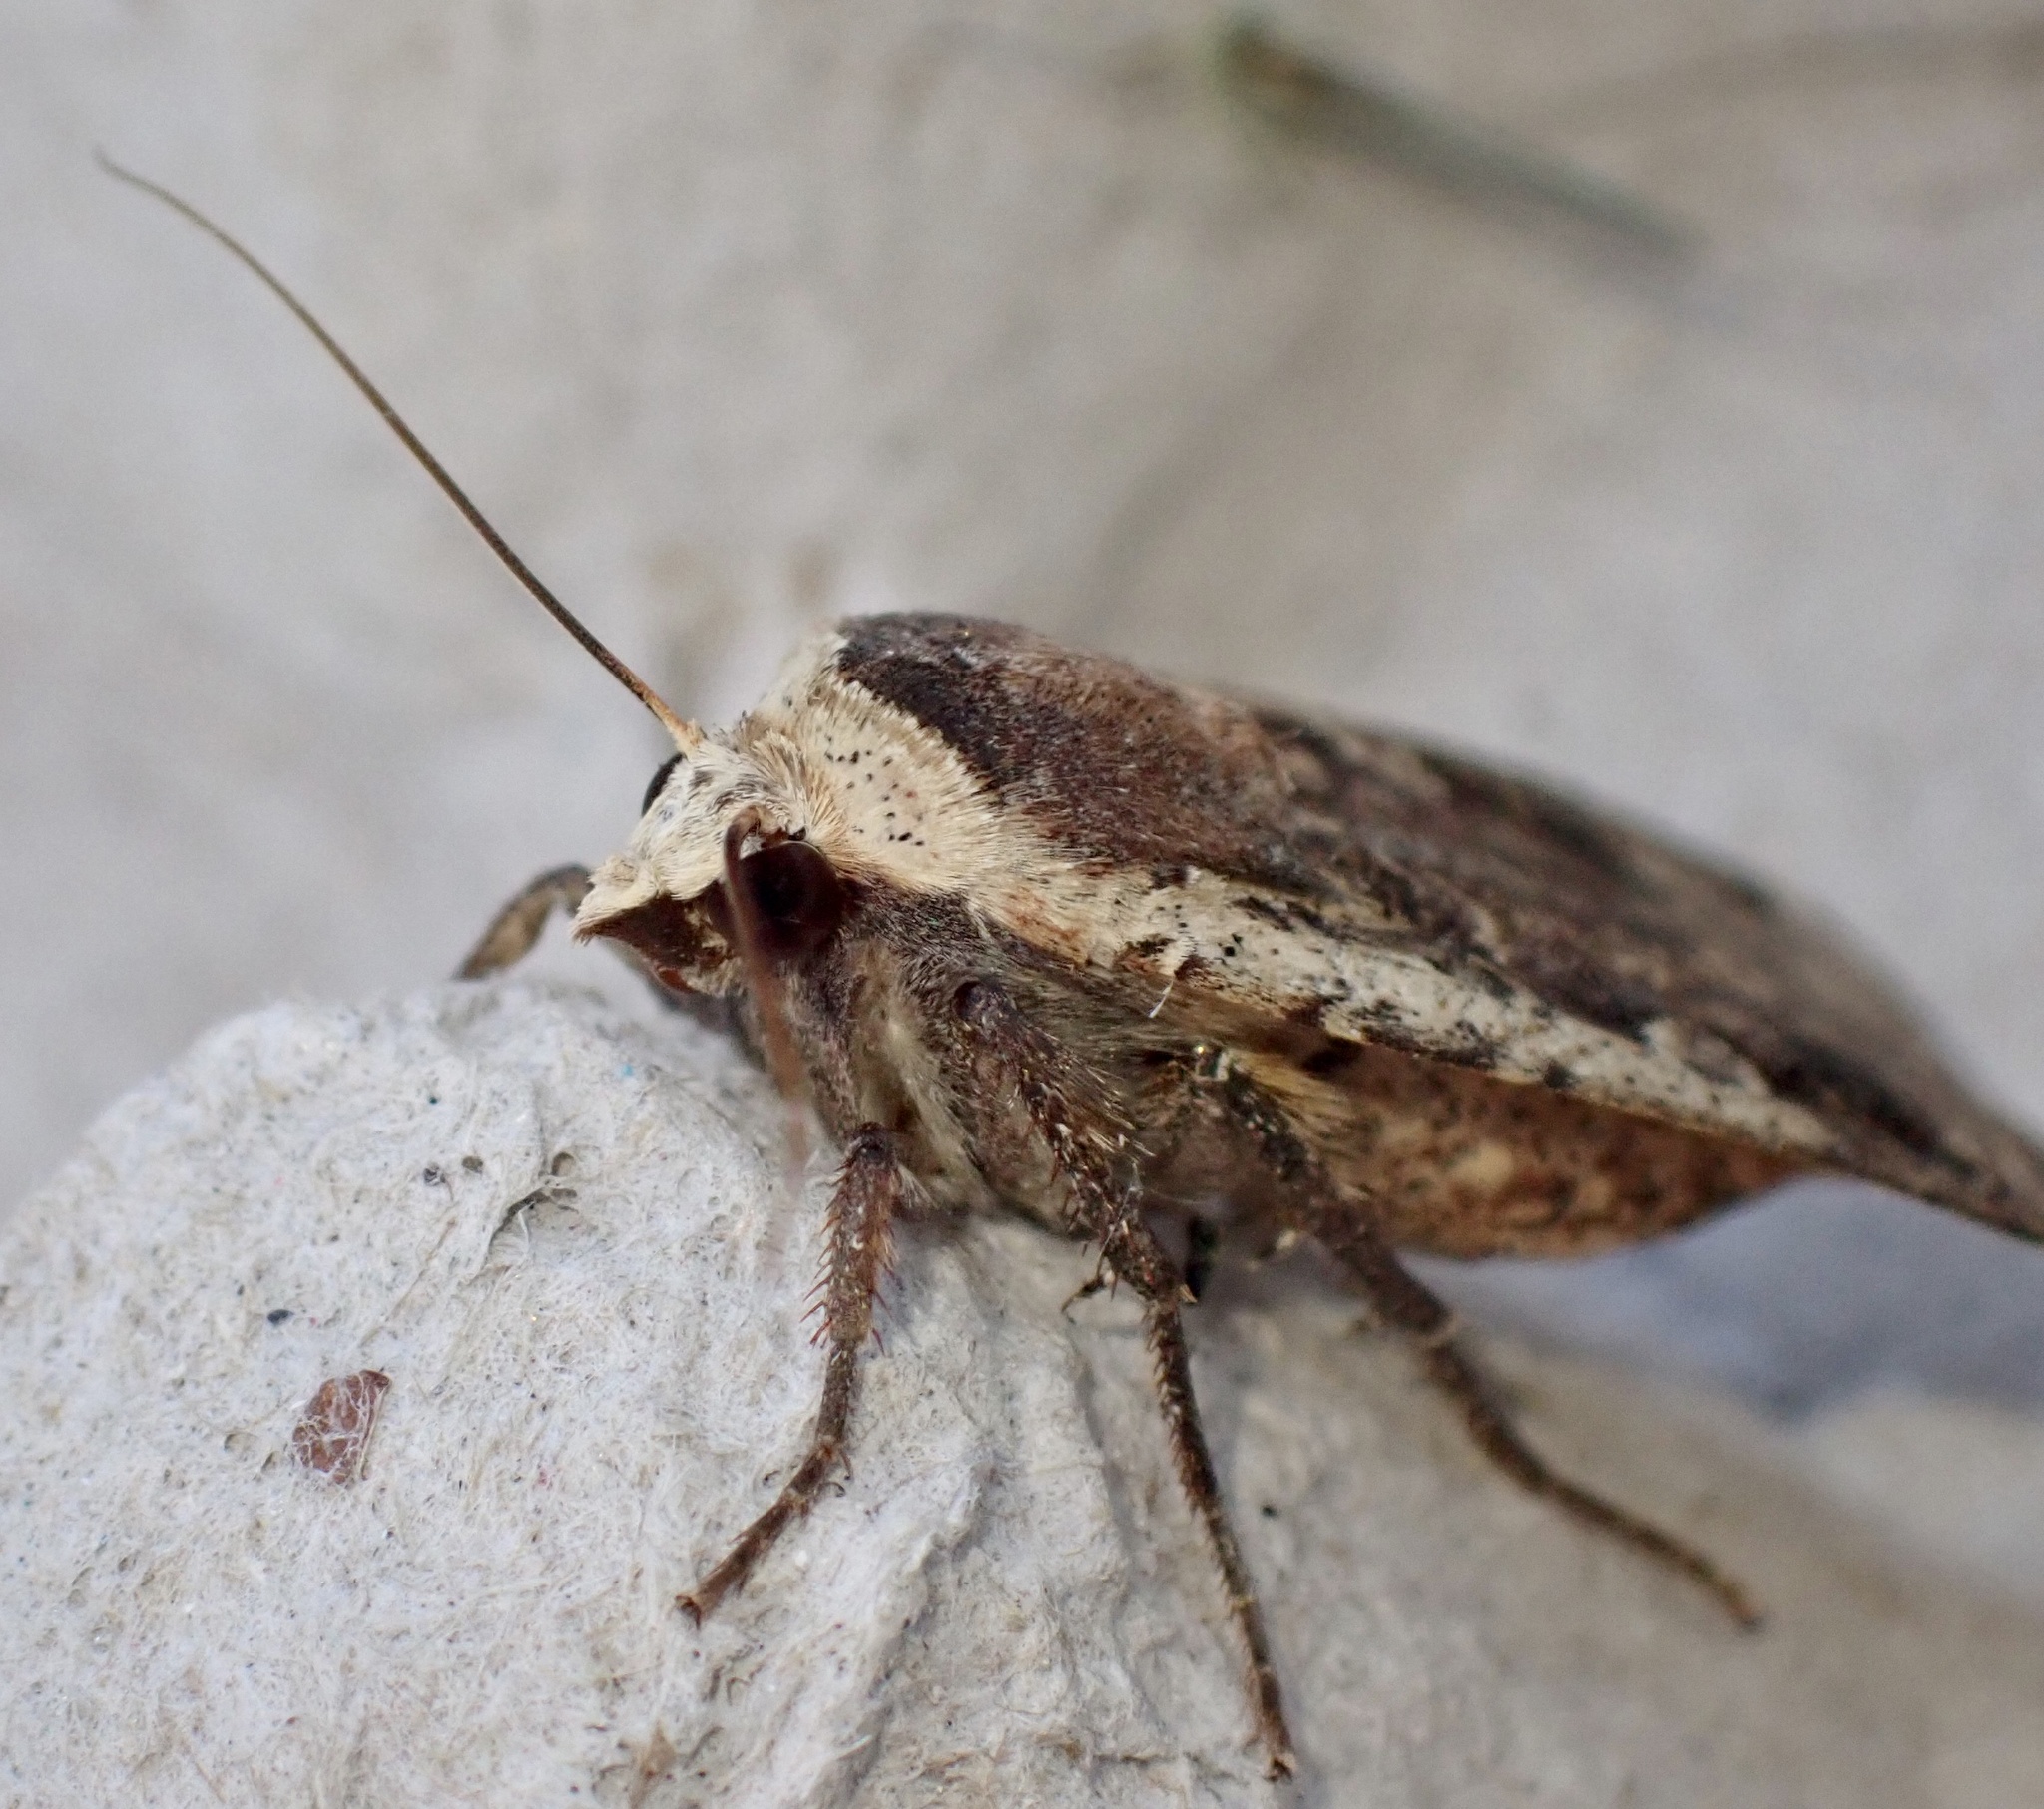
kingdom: Animalia
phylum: Arthropoda
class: Insecta
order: Lepidoptera
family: Noctuidae
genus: Noctua
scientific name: Noctua pronuba
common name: Large yellow underwing
